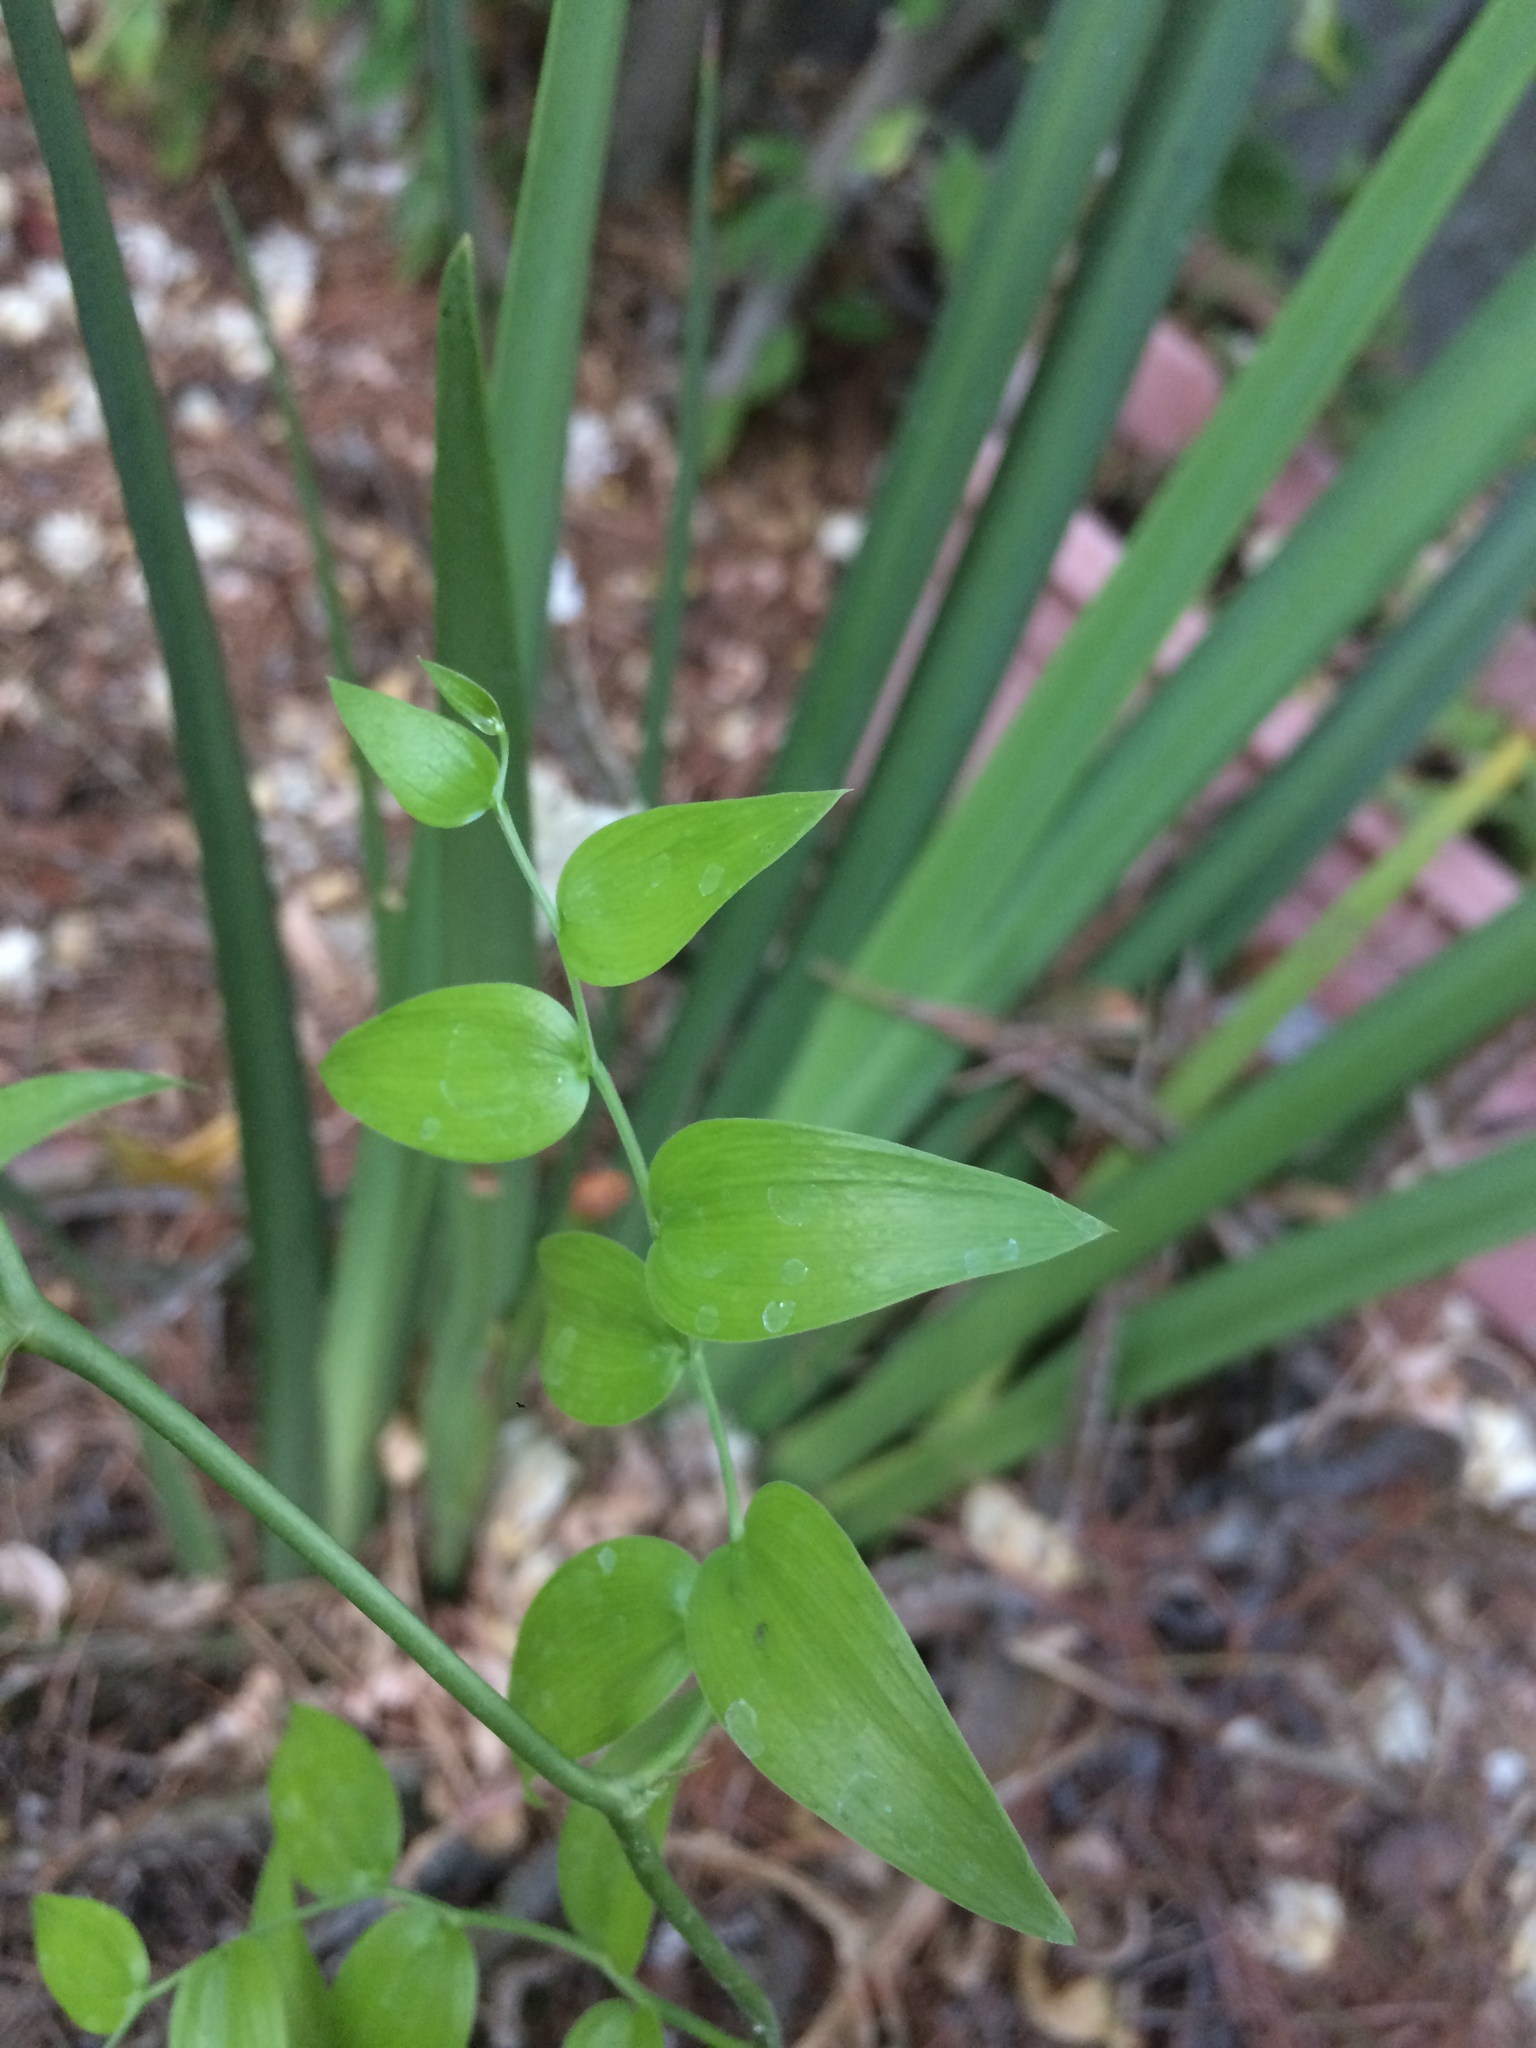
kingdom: Plantae
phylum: Tracheophyta
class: Liliopsida
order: Asparagales
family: Asparagaceae
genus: Asparagus
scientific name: Asparagus asparagoides
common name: African asparagus fern
